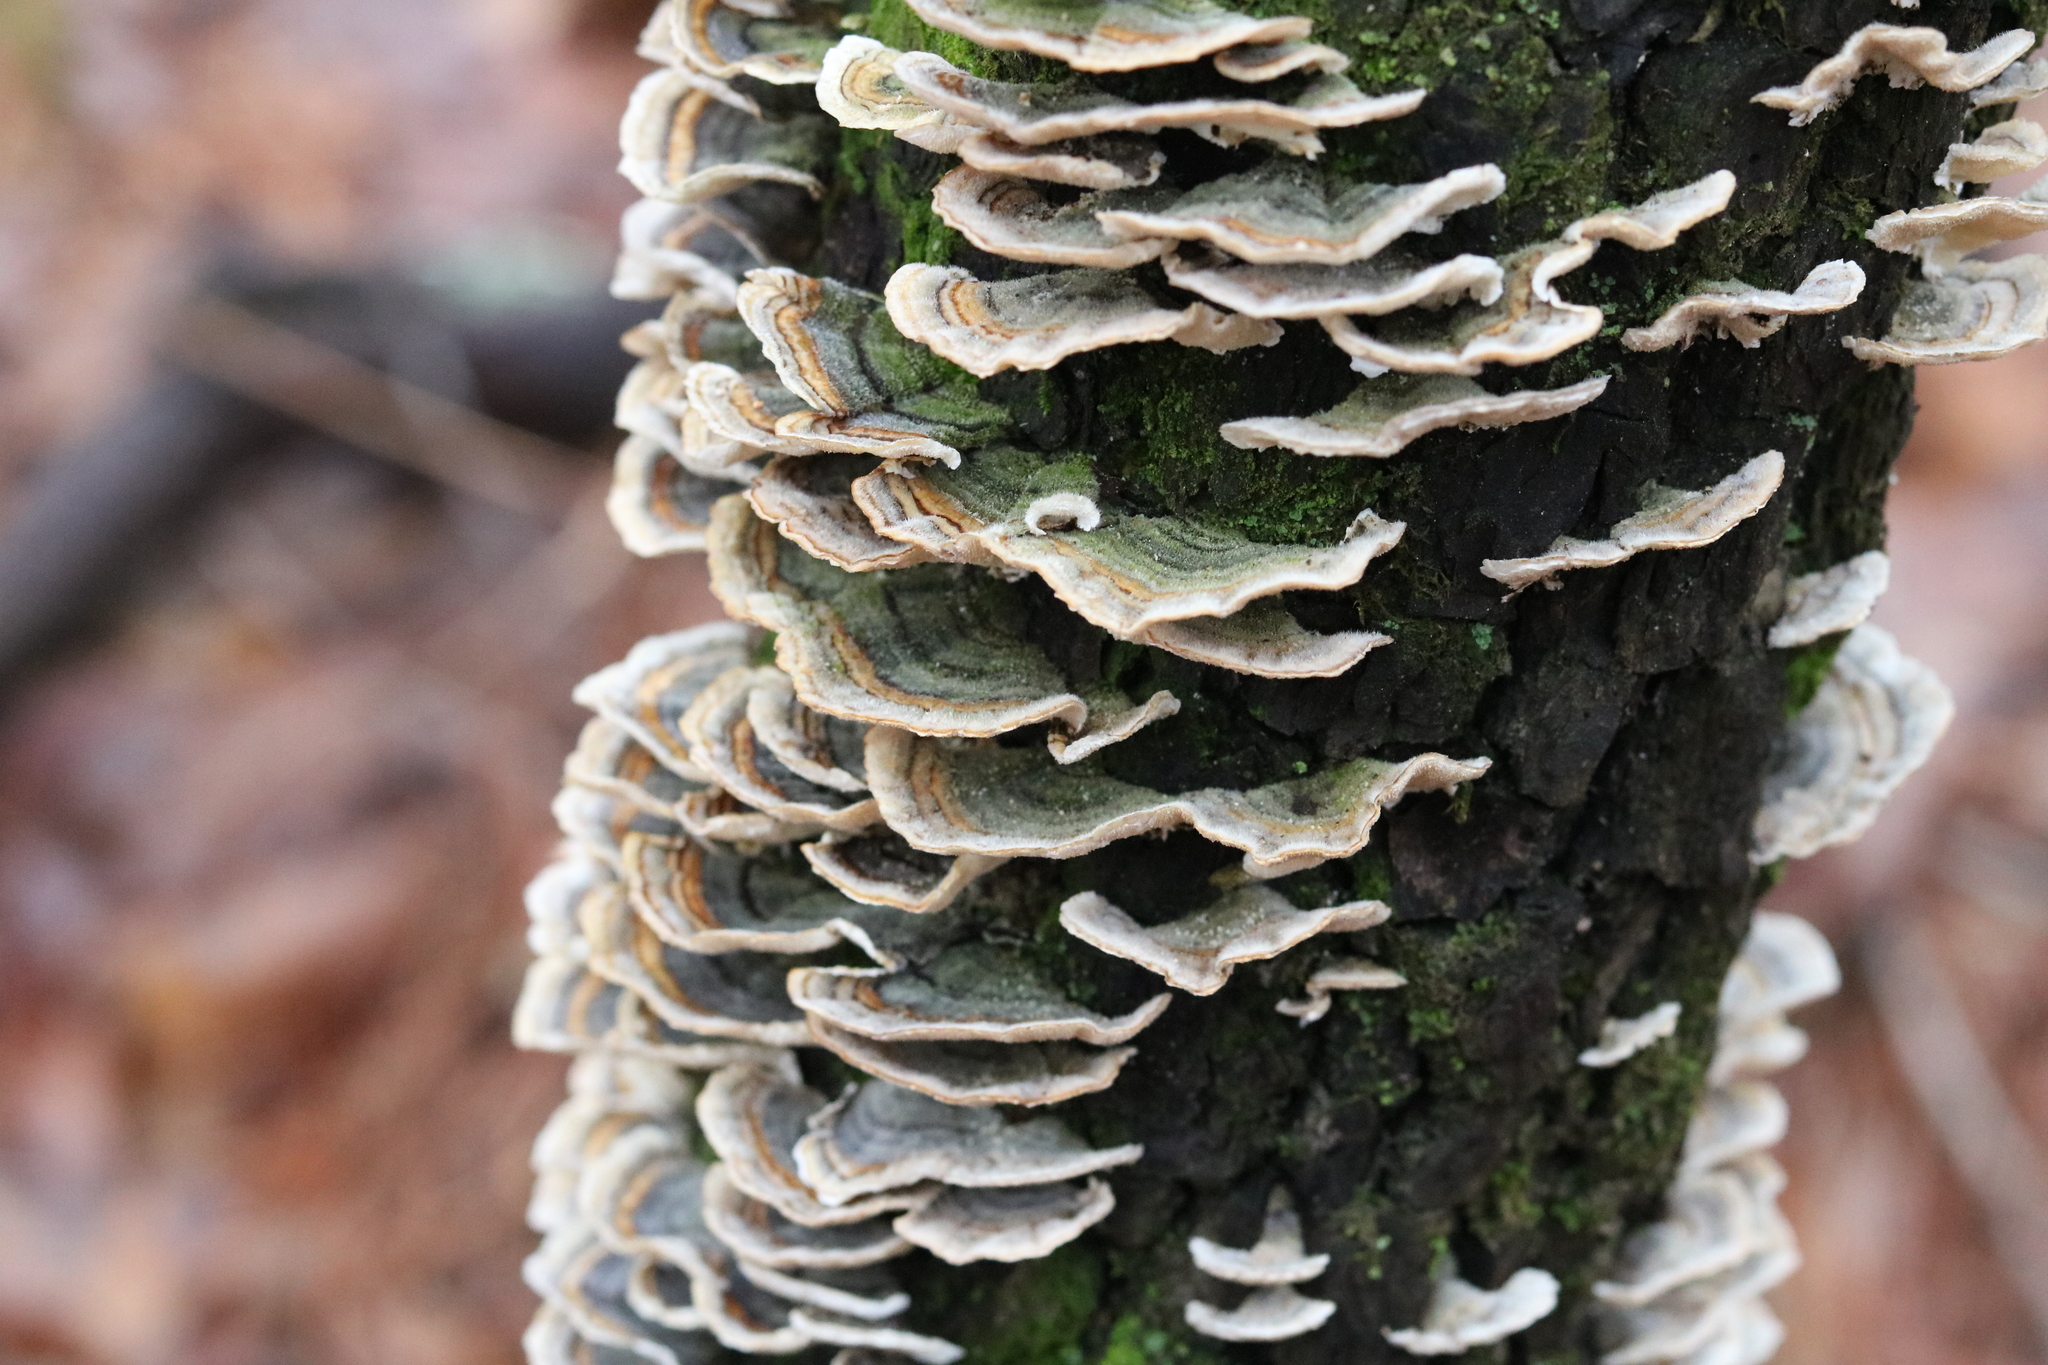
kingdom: Fungi
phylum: Basidiomycota
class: Agaricomycetes
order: Polyporales
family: Polyporaceae
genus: Trametes
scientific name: Trametes versicolor
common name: Turkeytail
